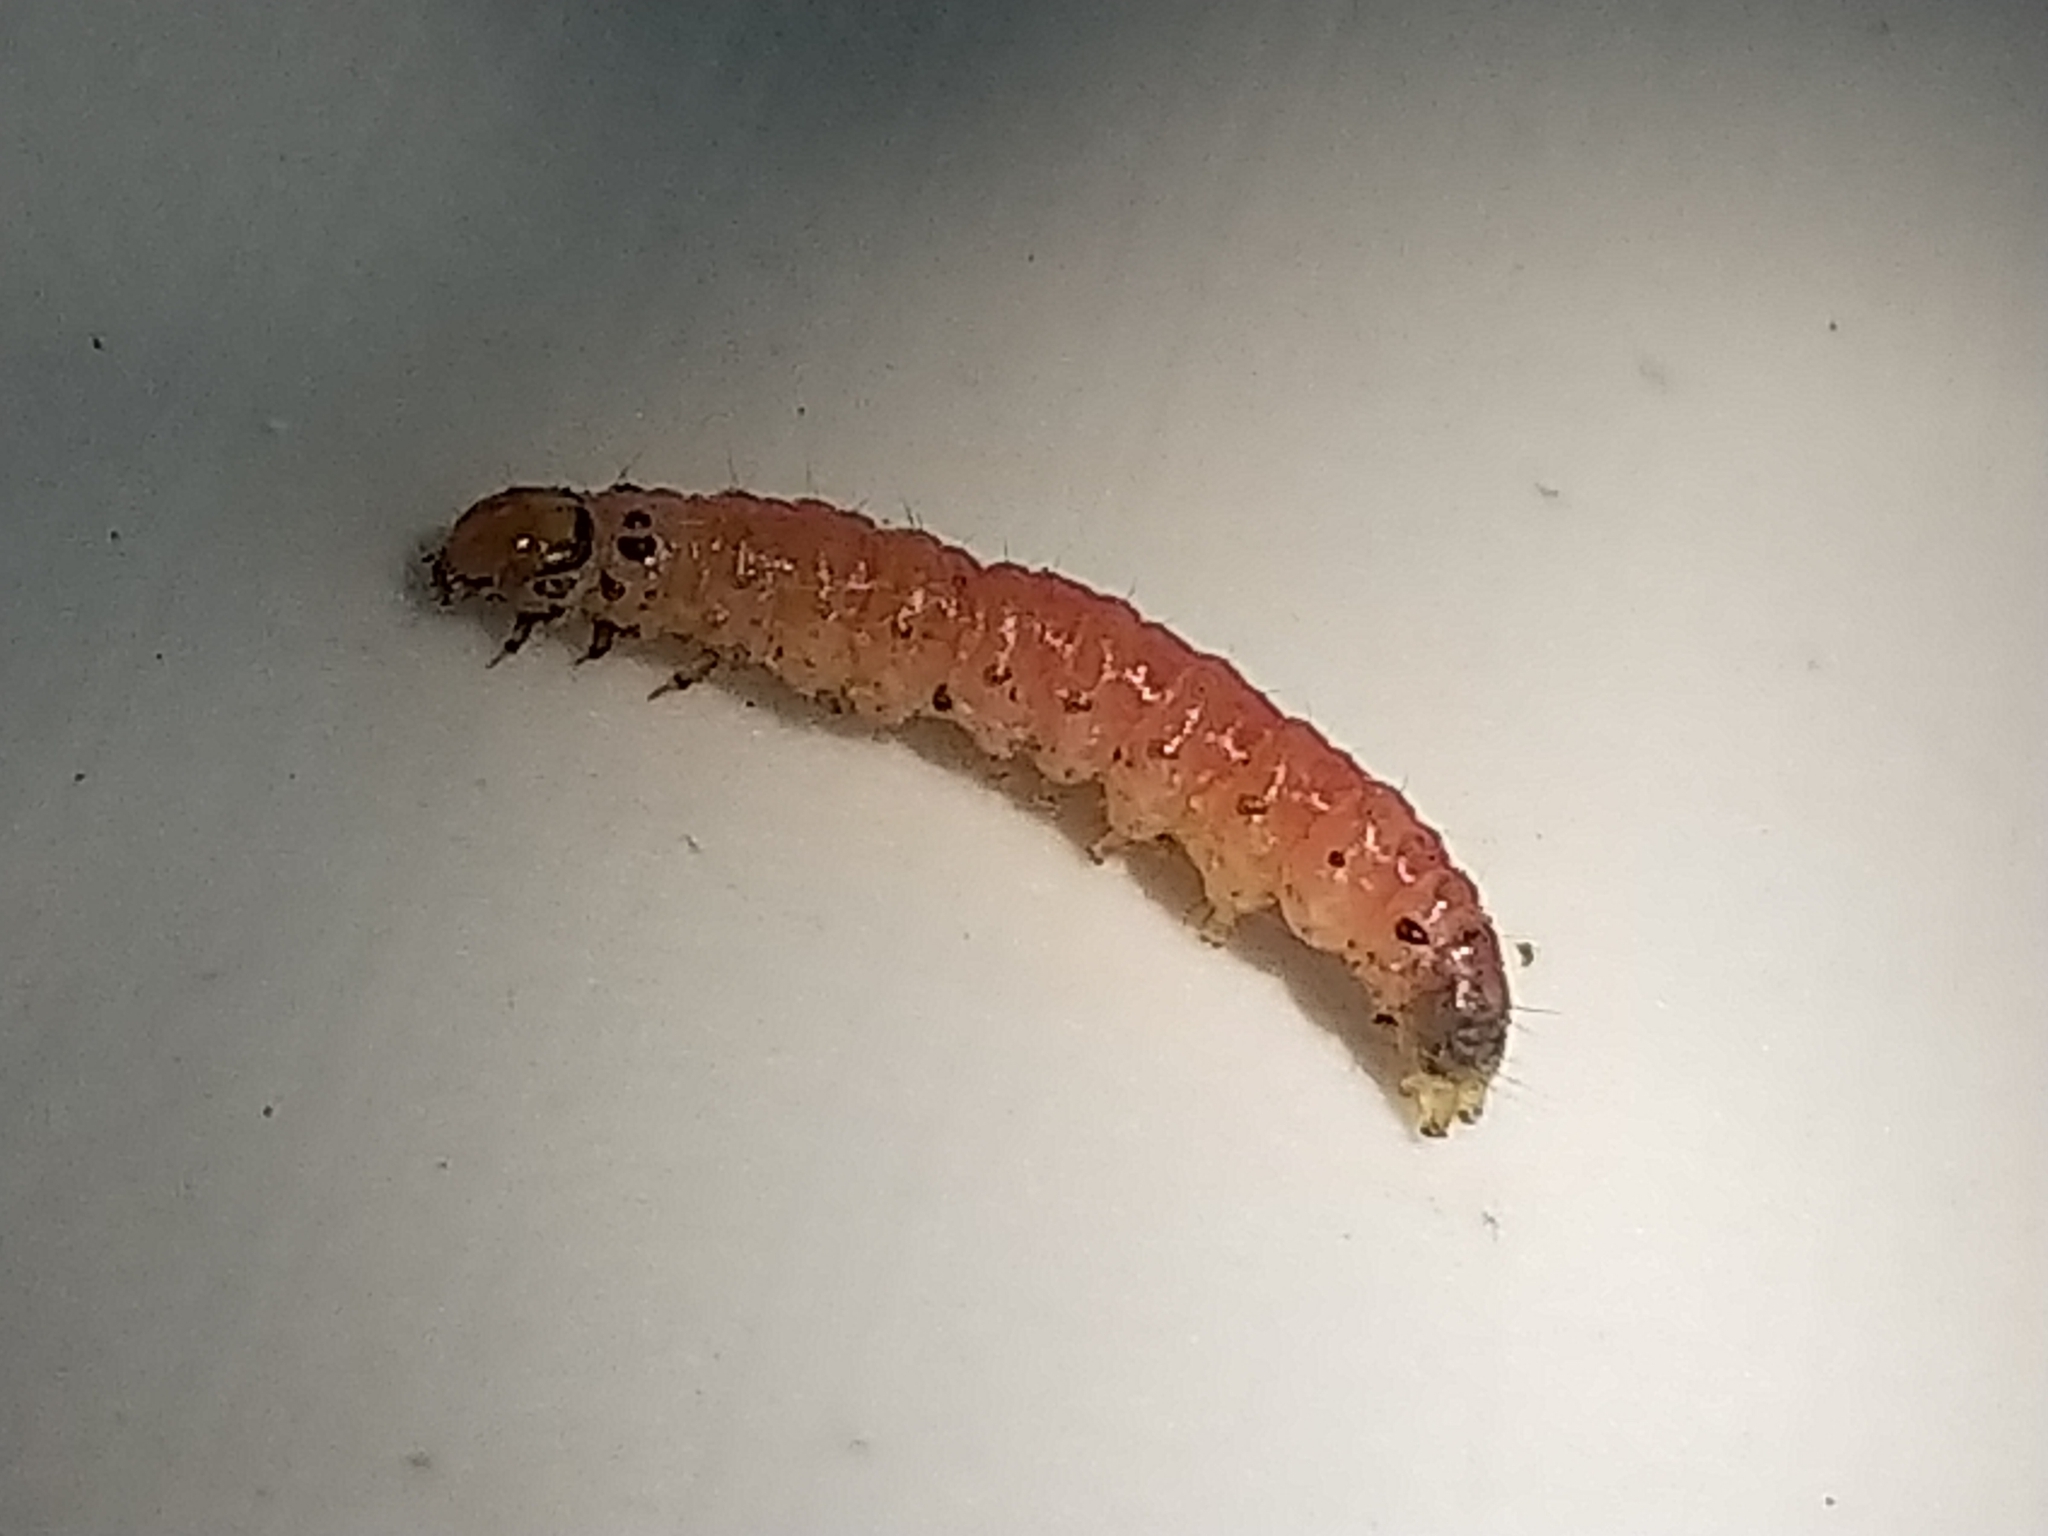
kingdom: Animalia
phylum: Arthropoda
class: Insecta
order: Lepidoptera
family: Tortricidae
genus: Cydia
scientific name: Cydia pomonella
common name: Codling moth
